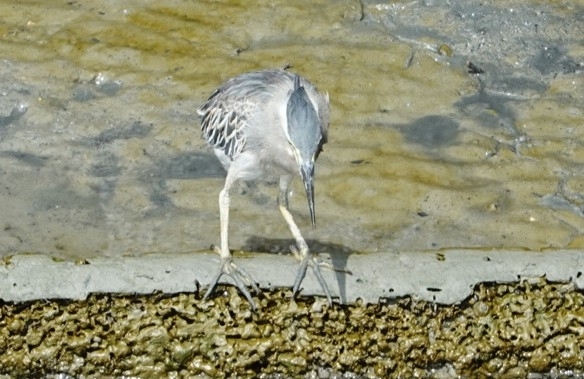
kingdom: Animalia
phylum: Chordata
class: Aves
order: Pelecaniformes
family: Ardeidae
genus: Butorides
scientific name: Butorides striata
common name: Striated heron
